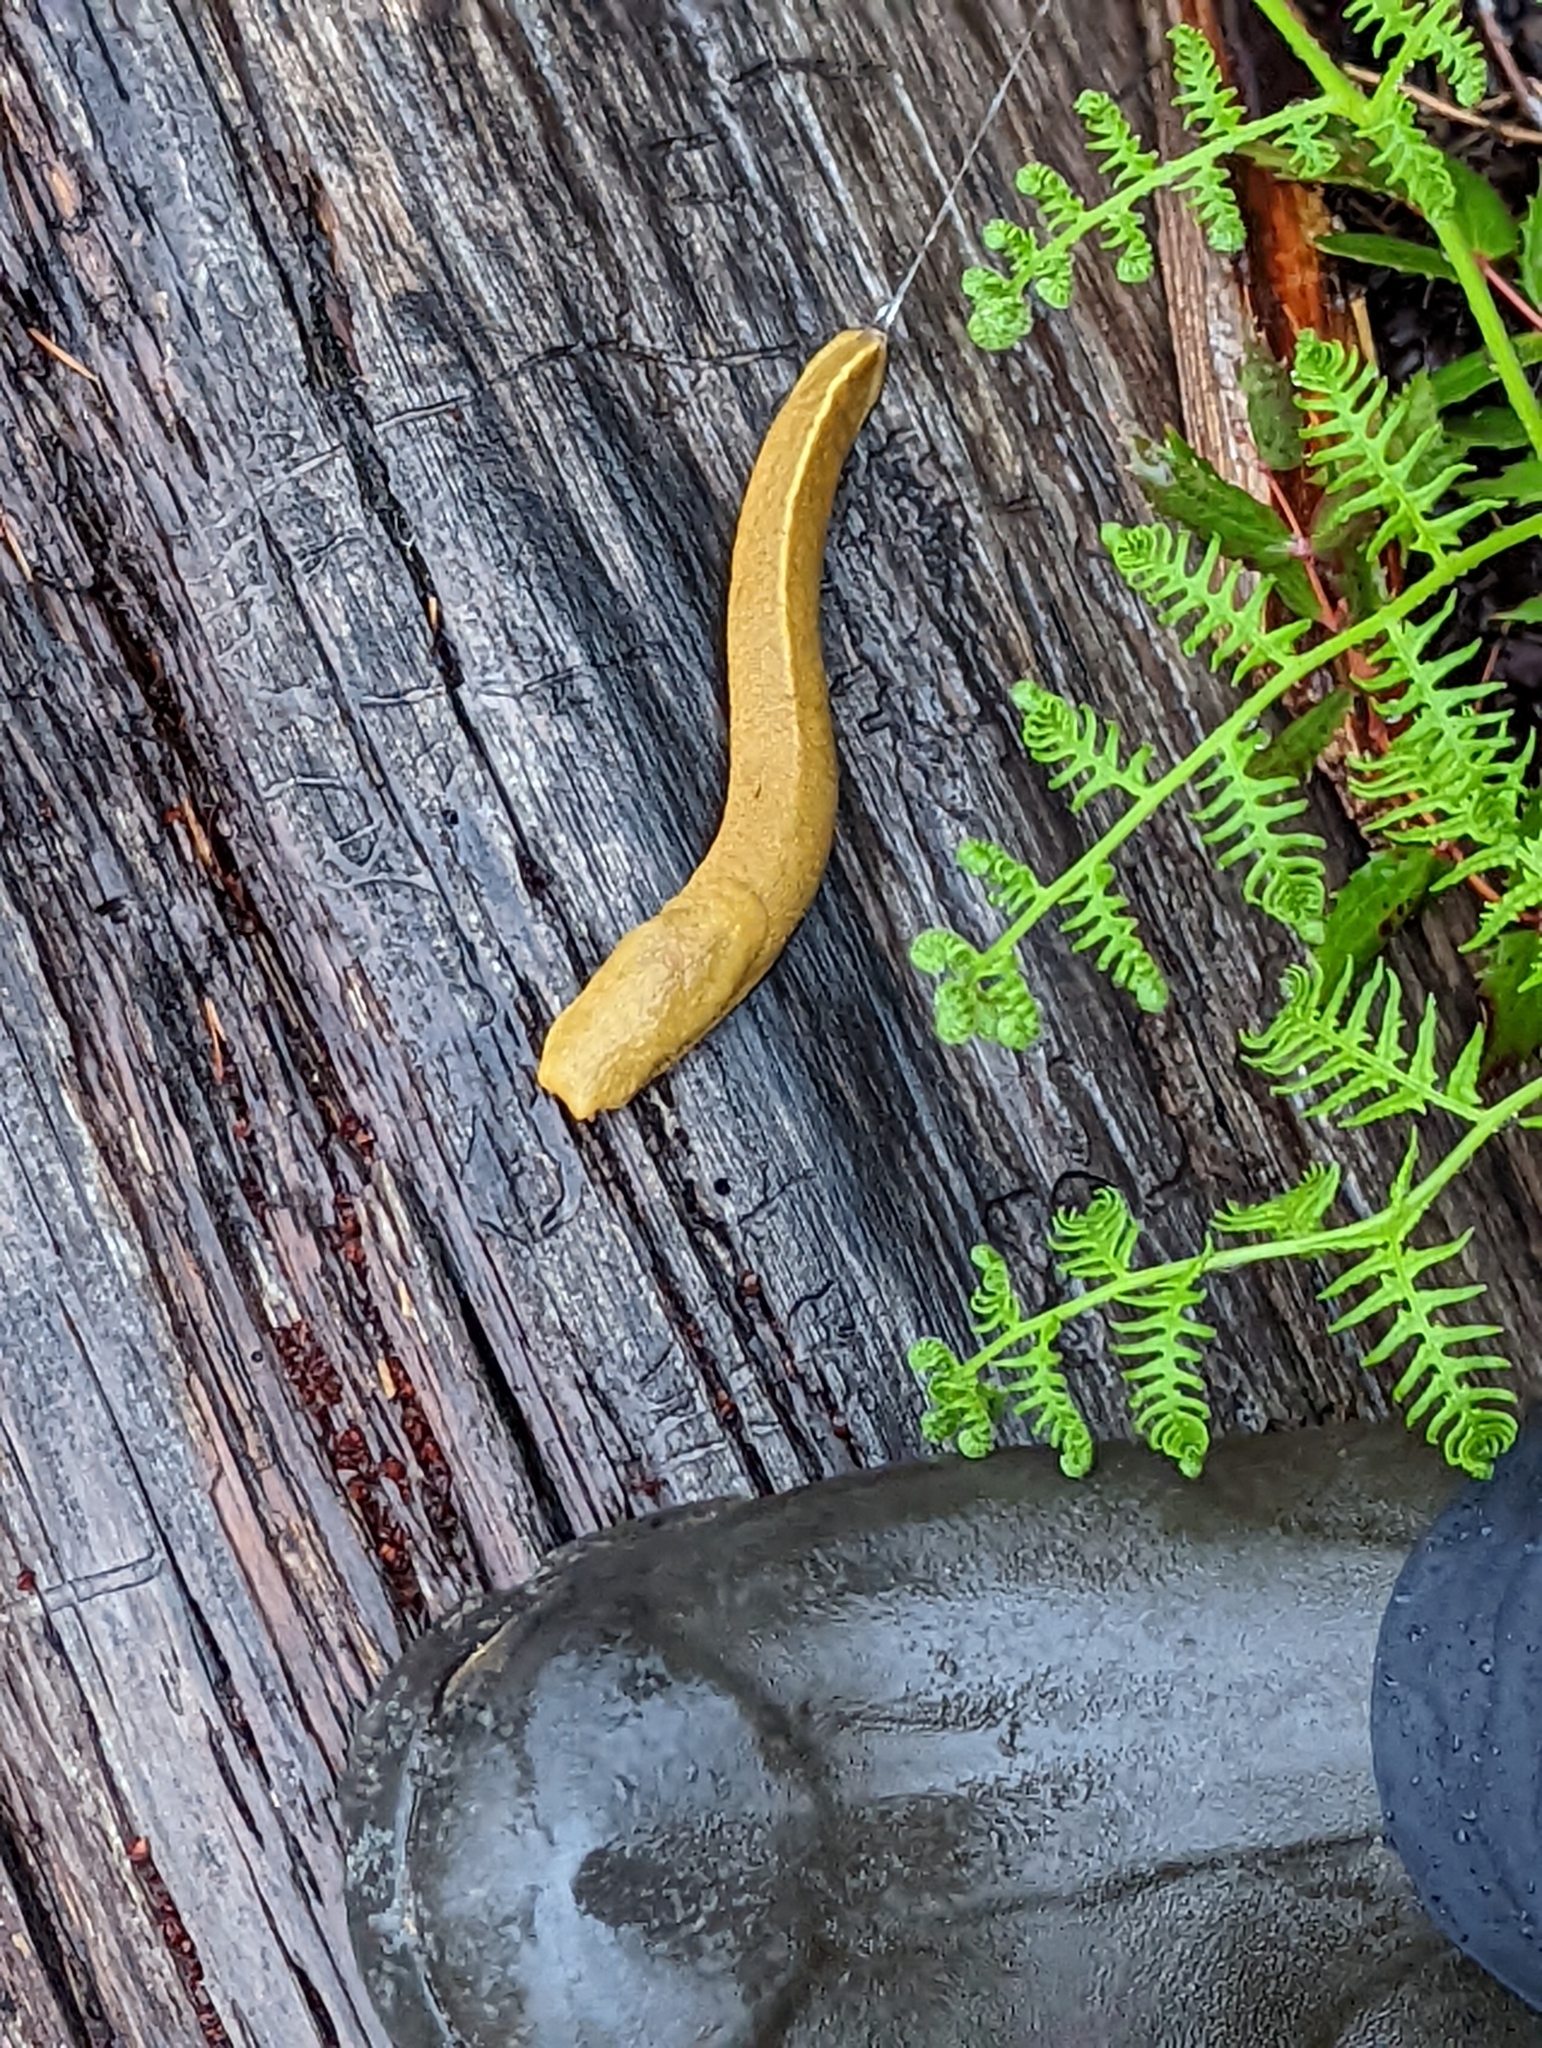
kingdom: Animalia
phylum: Mollusca
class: Gastropoda
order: Stylommatophora
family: Ariolimacidae
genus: Ariolimax
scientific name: Ariolimax columbianus
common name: Pacific banana slug
